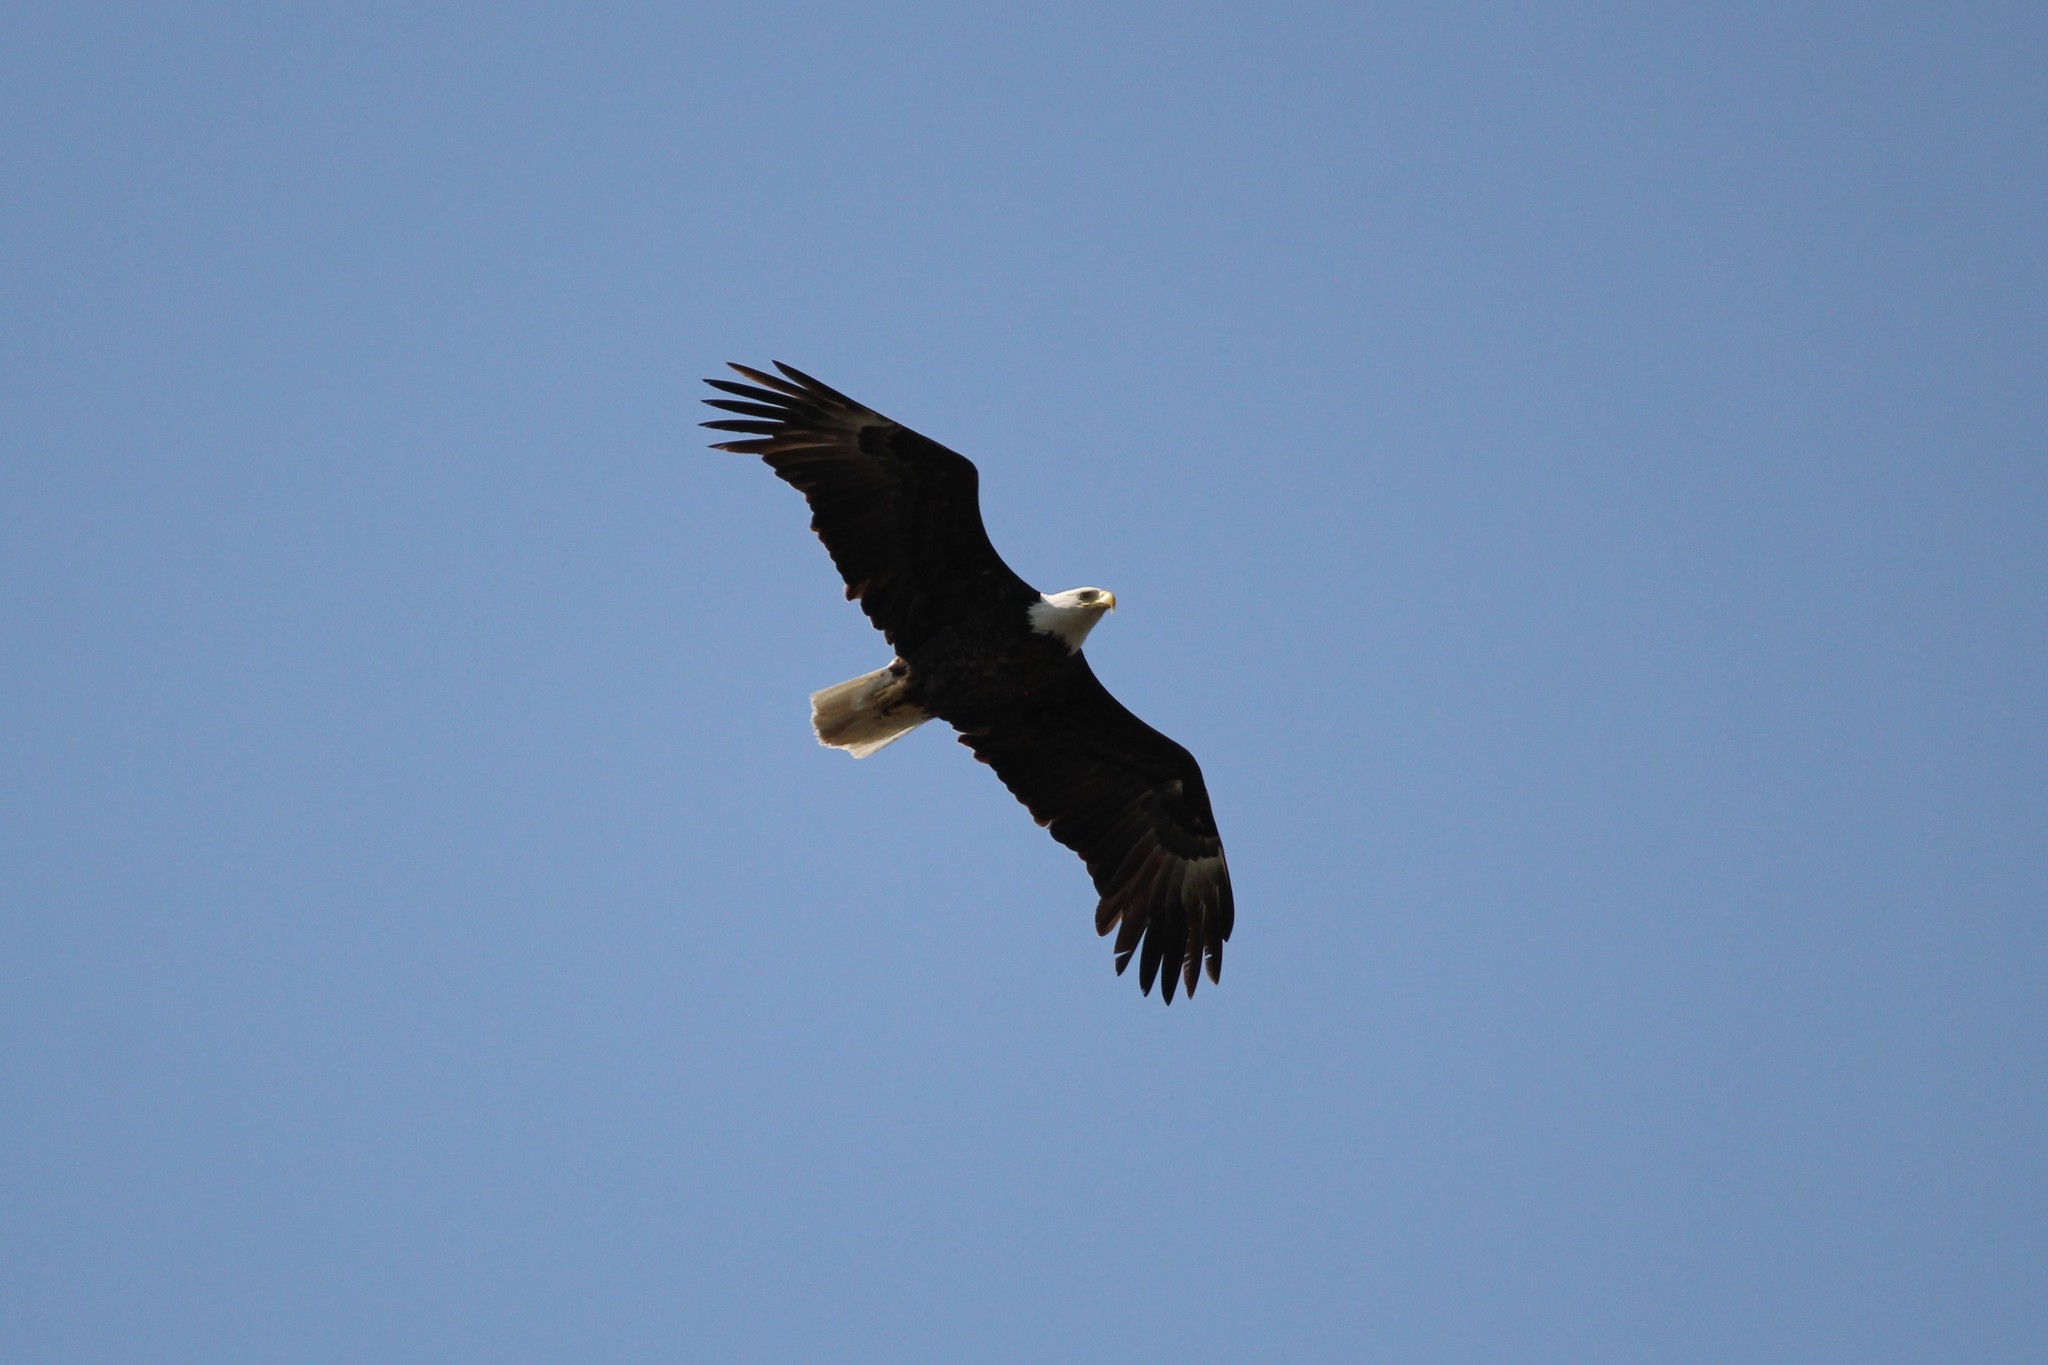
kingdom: Animalia
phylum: Chordata
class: Aves
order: Accipitriformes
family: Accipitridae
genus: Haliaeetus
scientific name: Haliaeetus leucocephalus
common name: Bald eagle
